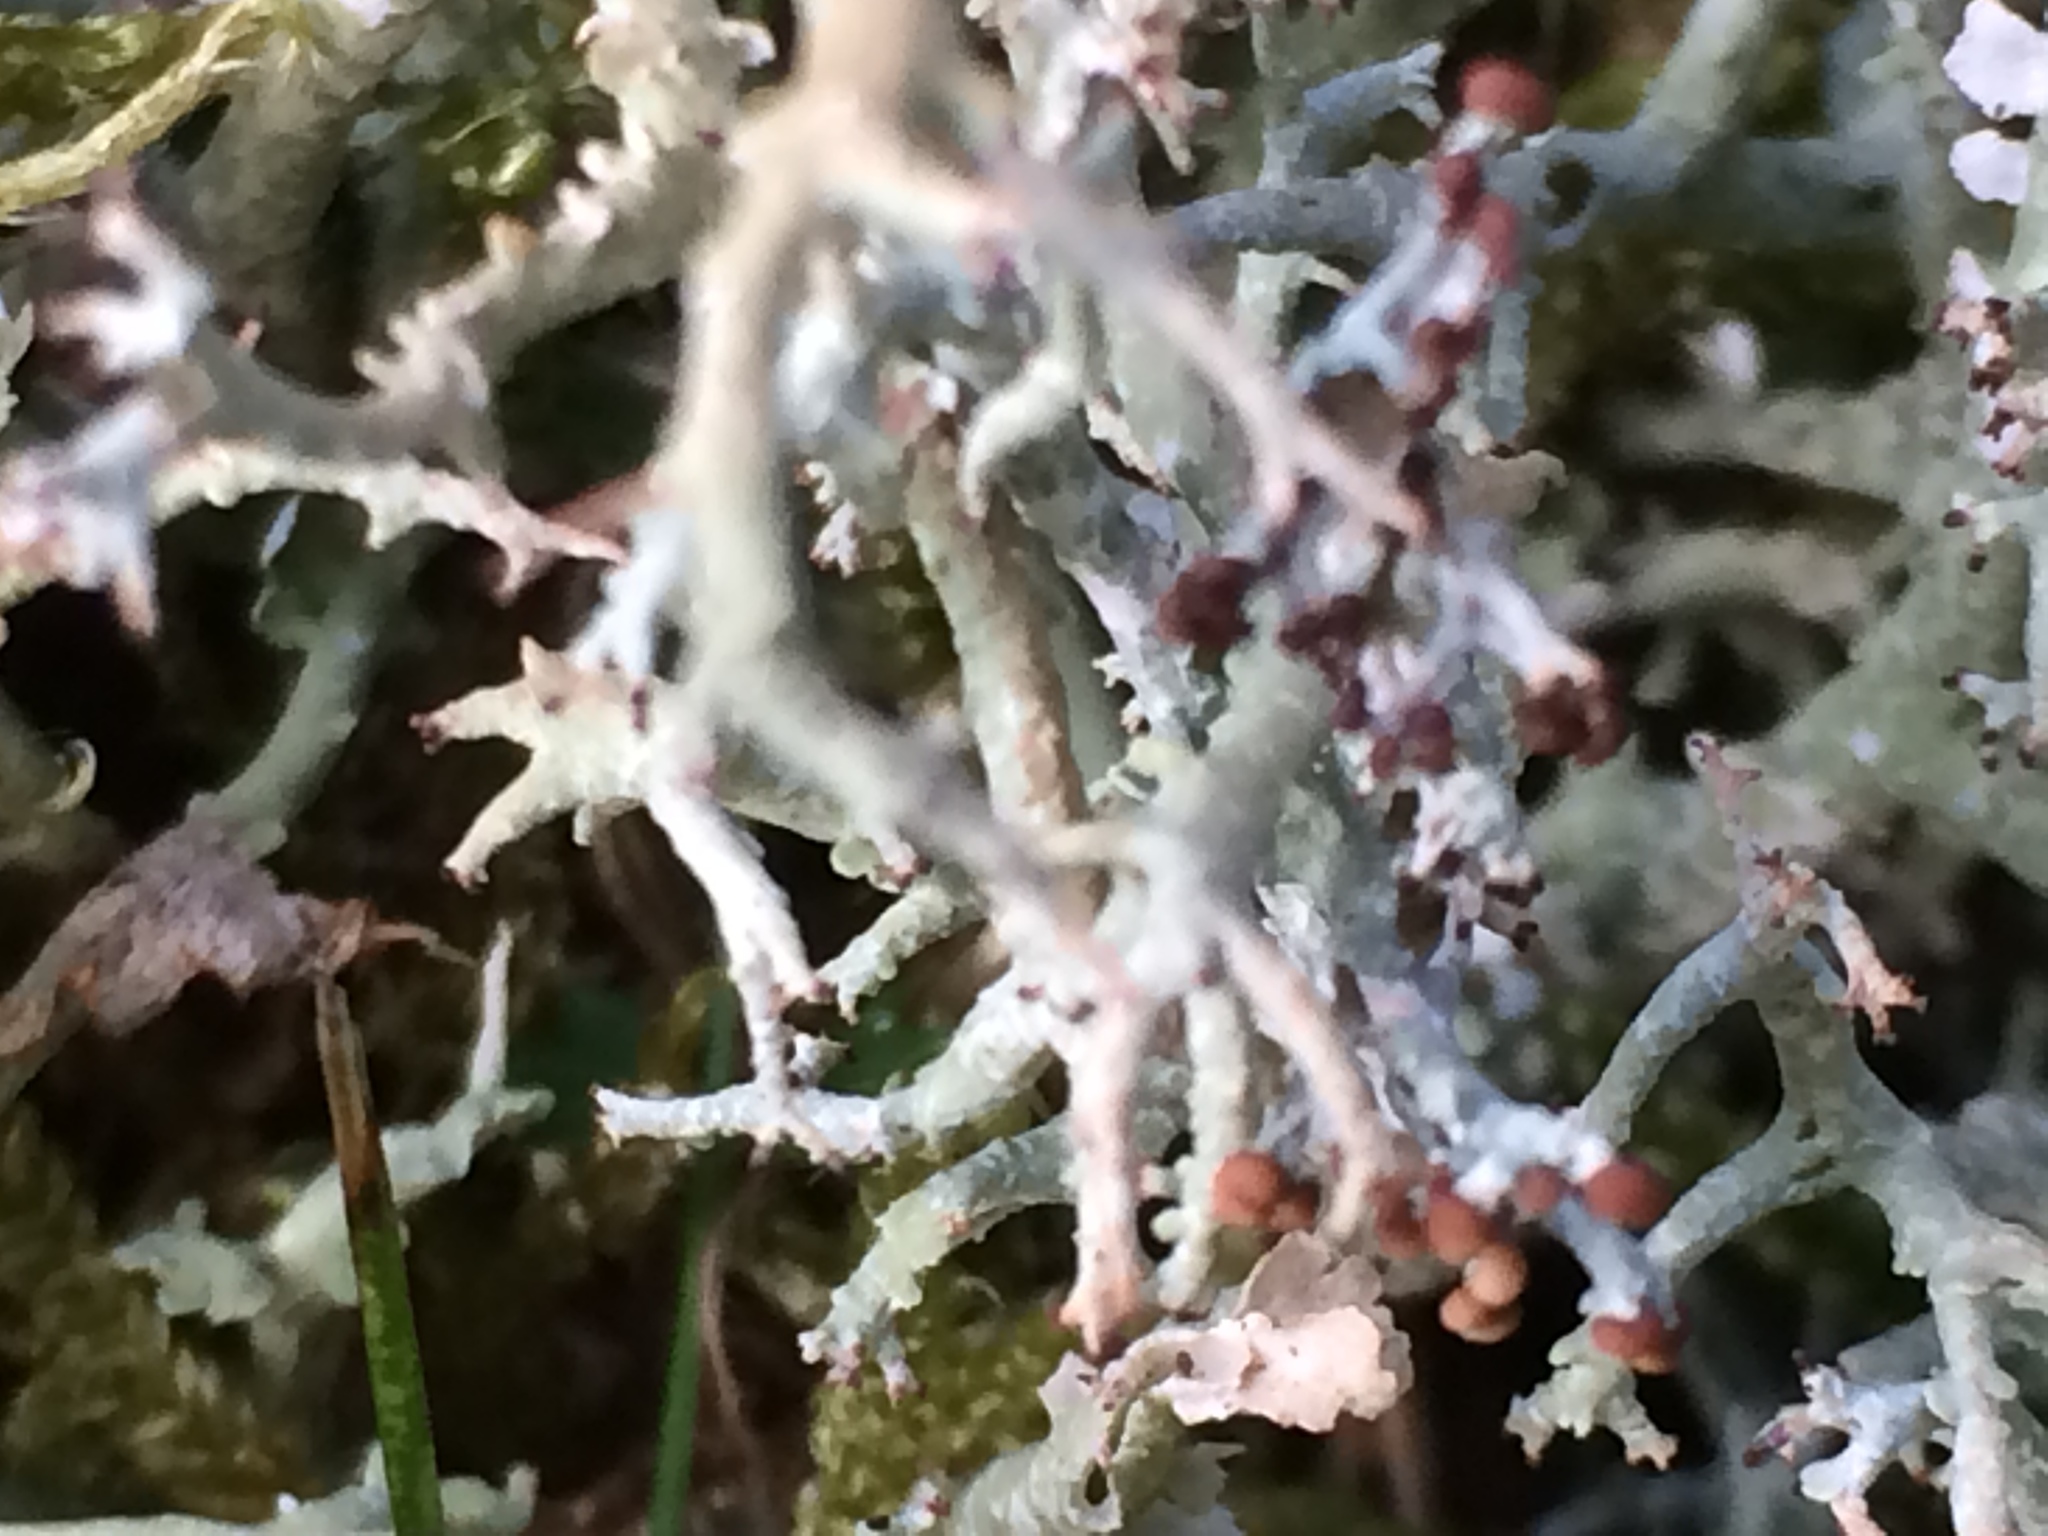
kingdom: Fungi
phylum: Ascomycota
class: Lecanoromycetes
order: Lecanorales
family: Cladoniaceae
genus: Cladonia
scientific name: Cladonia furcata
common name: Many-forked cladonia
